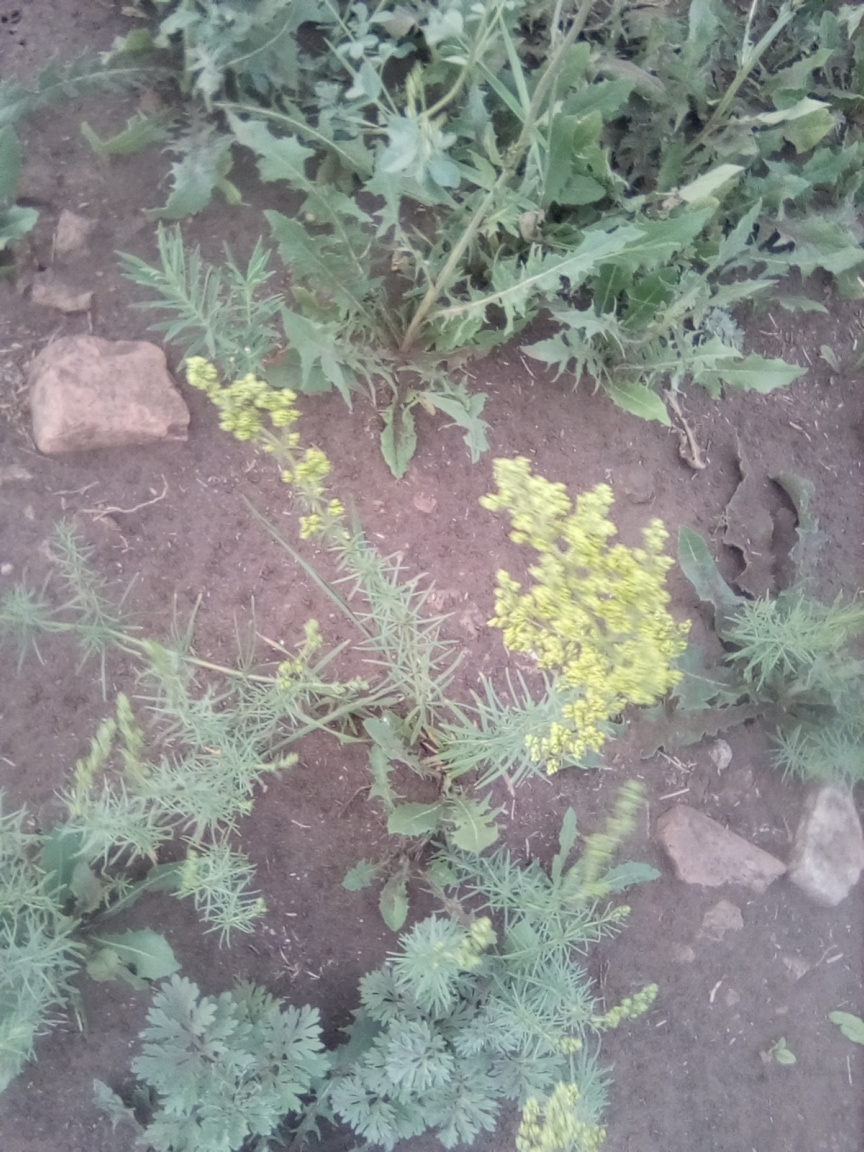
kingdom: Plantae
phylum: Tracheophyta
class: Magnoliopsida
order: Gentianales
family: Rubiaceae
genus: Galium
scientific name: Galium verum
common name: Lady's bedstraw
